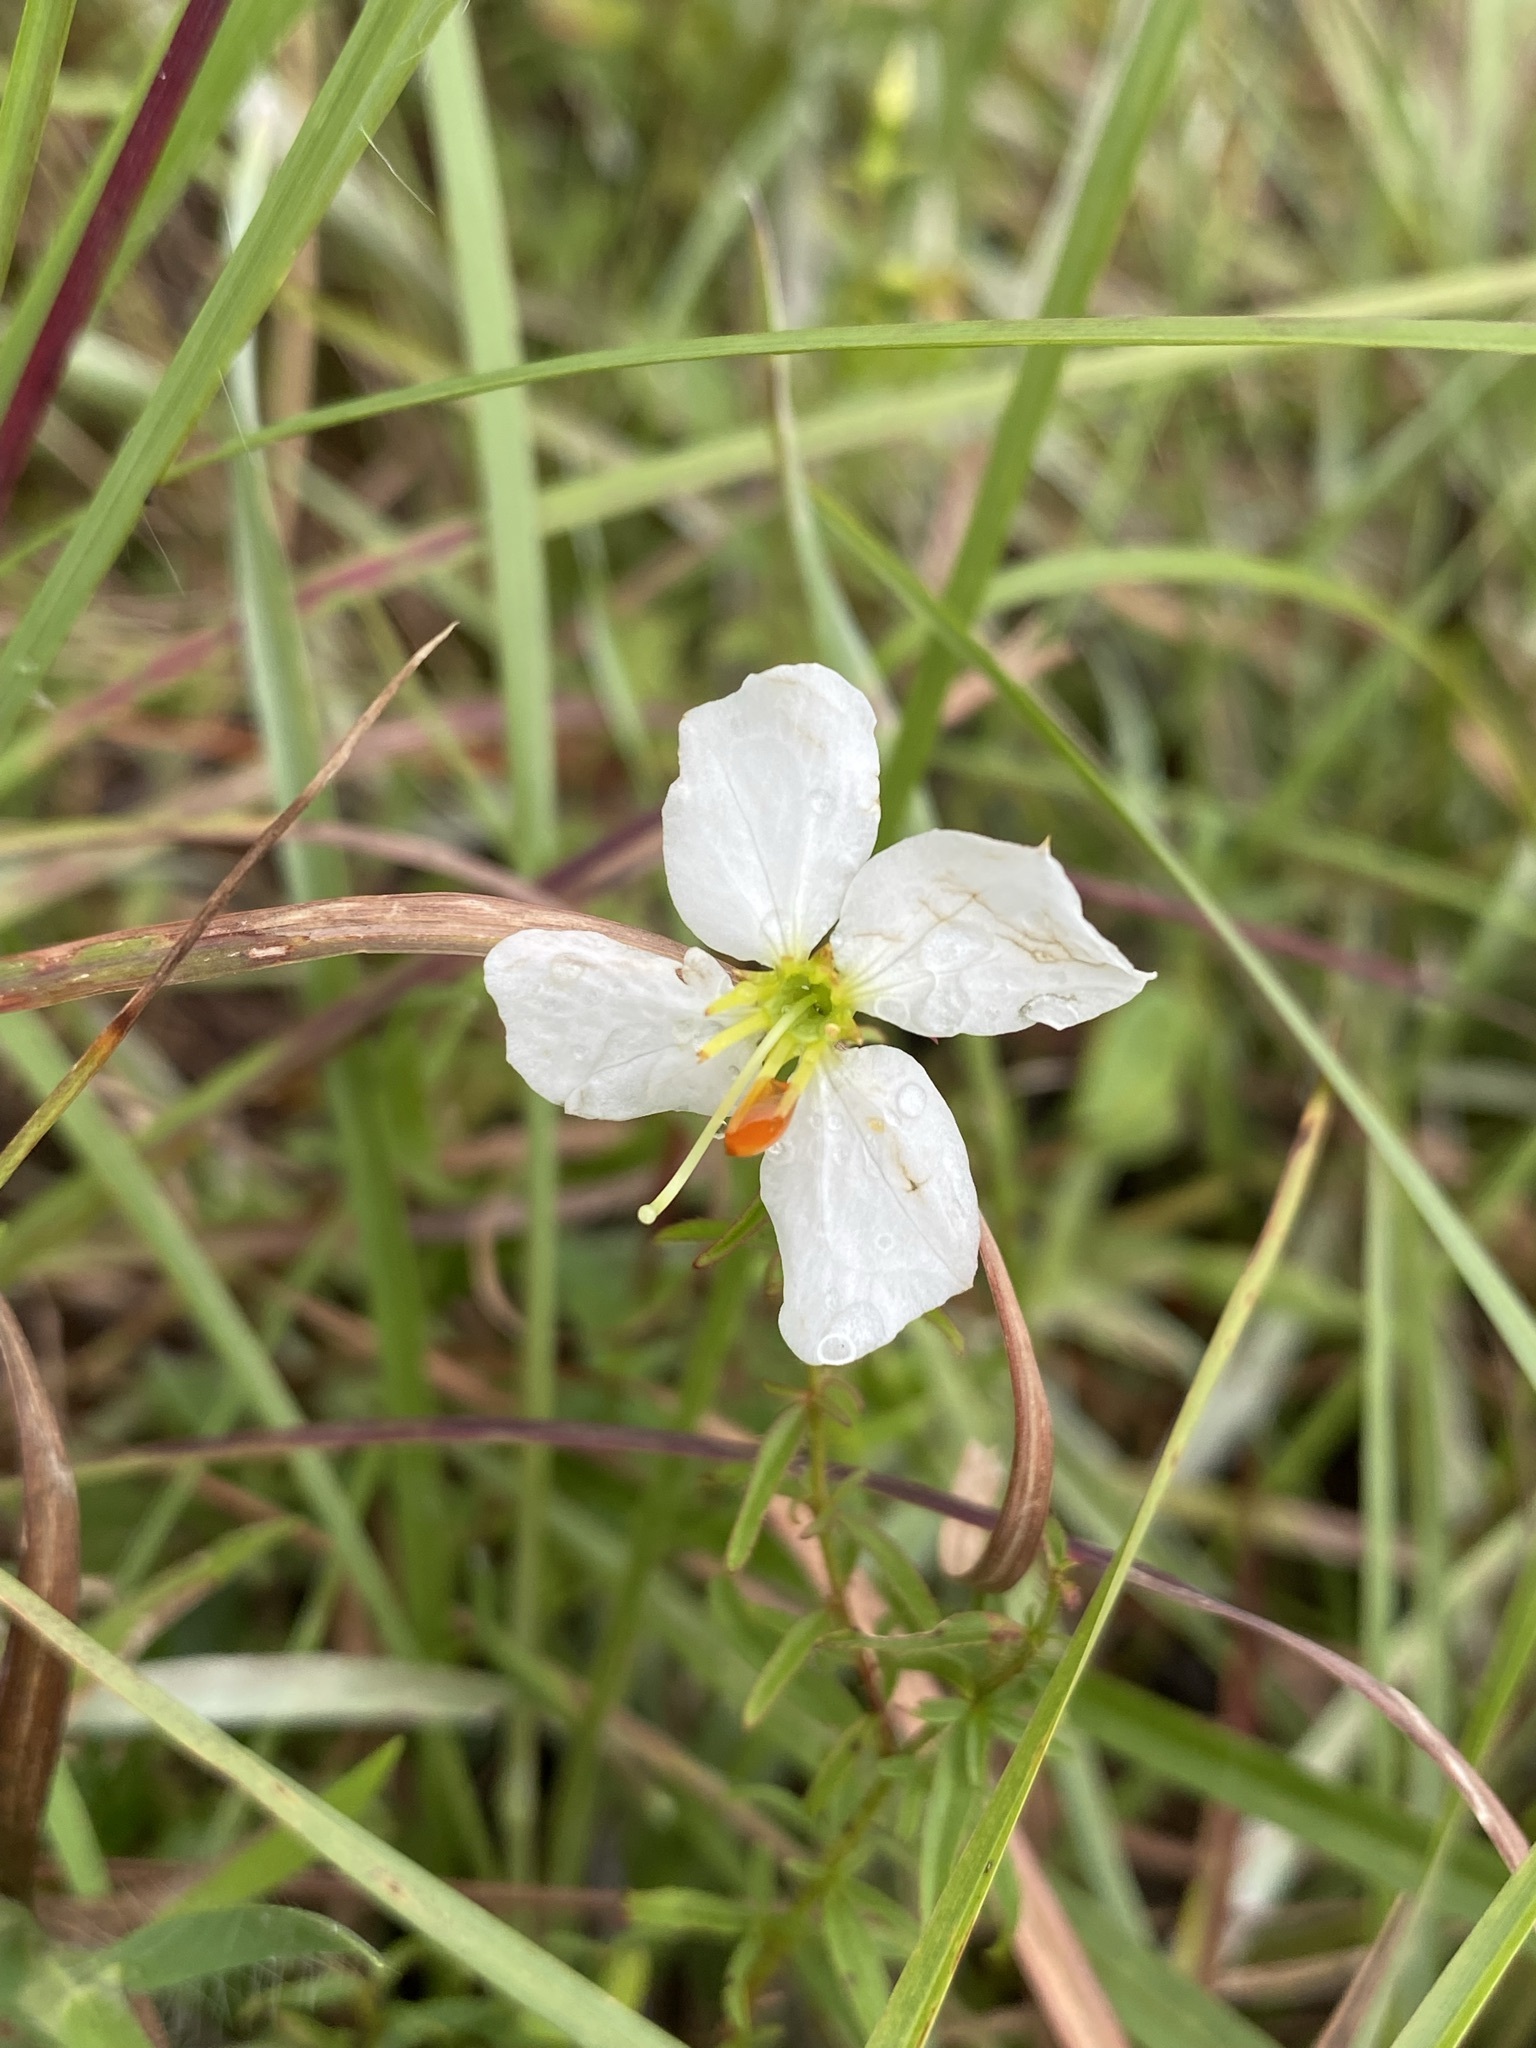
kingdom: Plantae
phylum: Tracheophyta
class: Magnoliopsida
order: Myrtales
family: Melastomataceae
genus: Rhexia
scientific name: Rhexia mariana
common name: Dull meadow-pitcher
